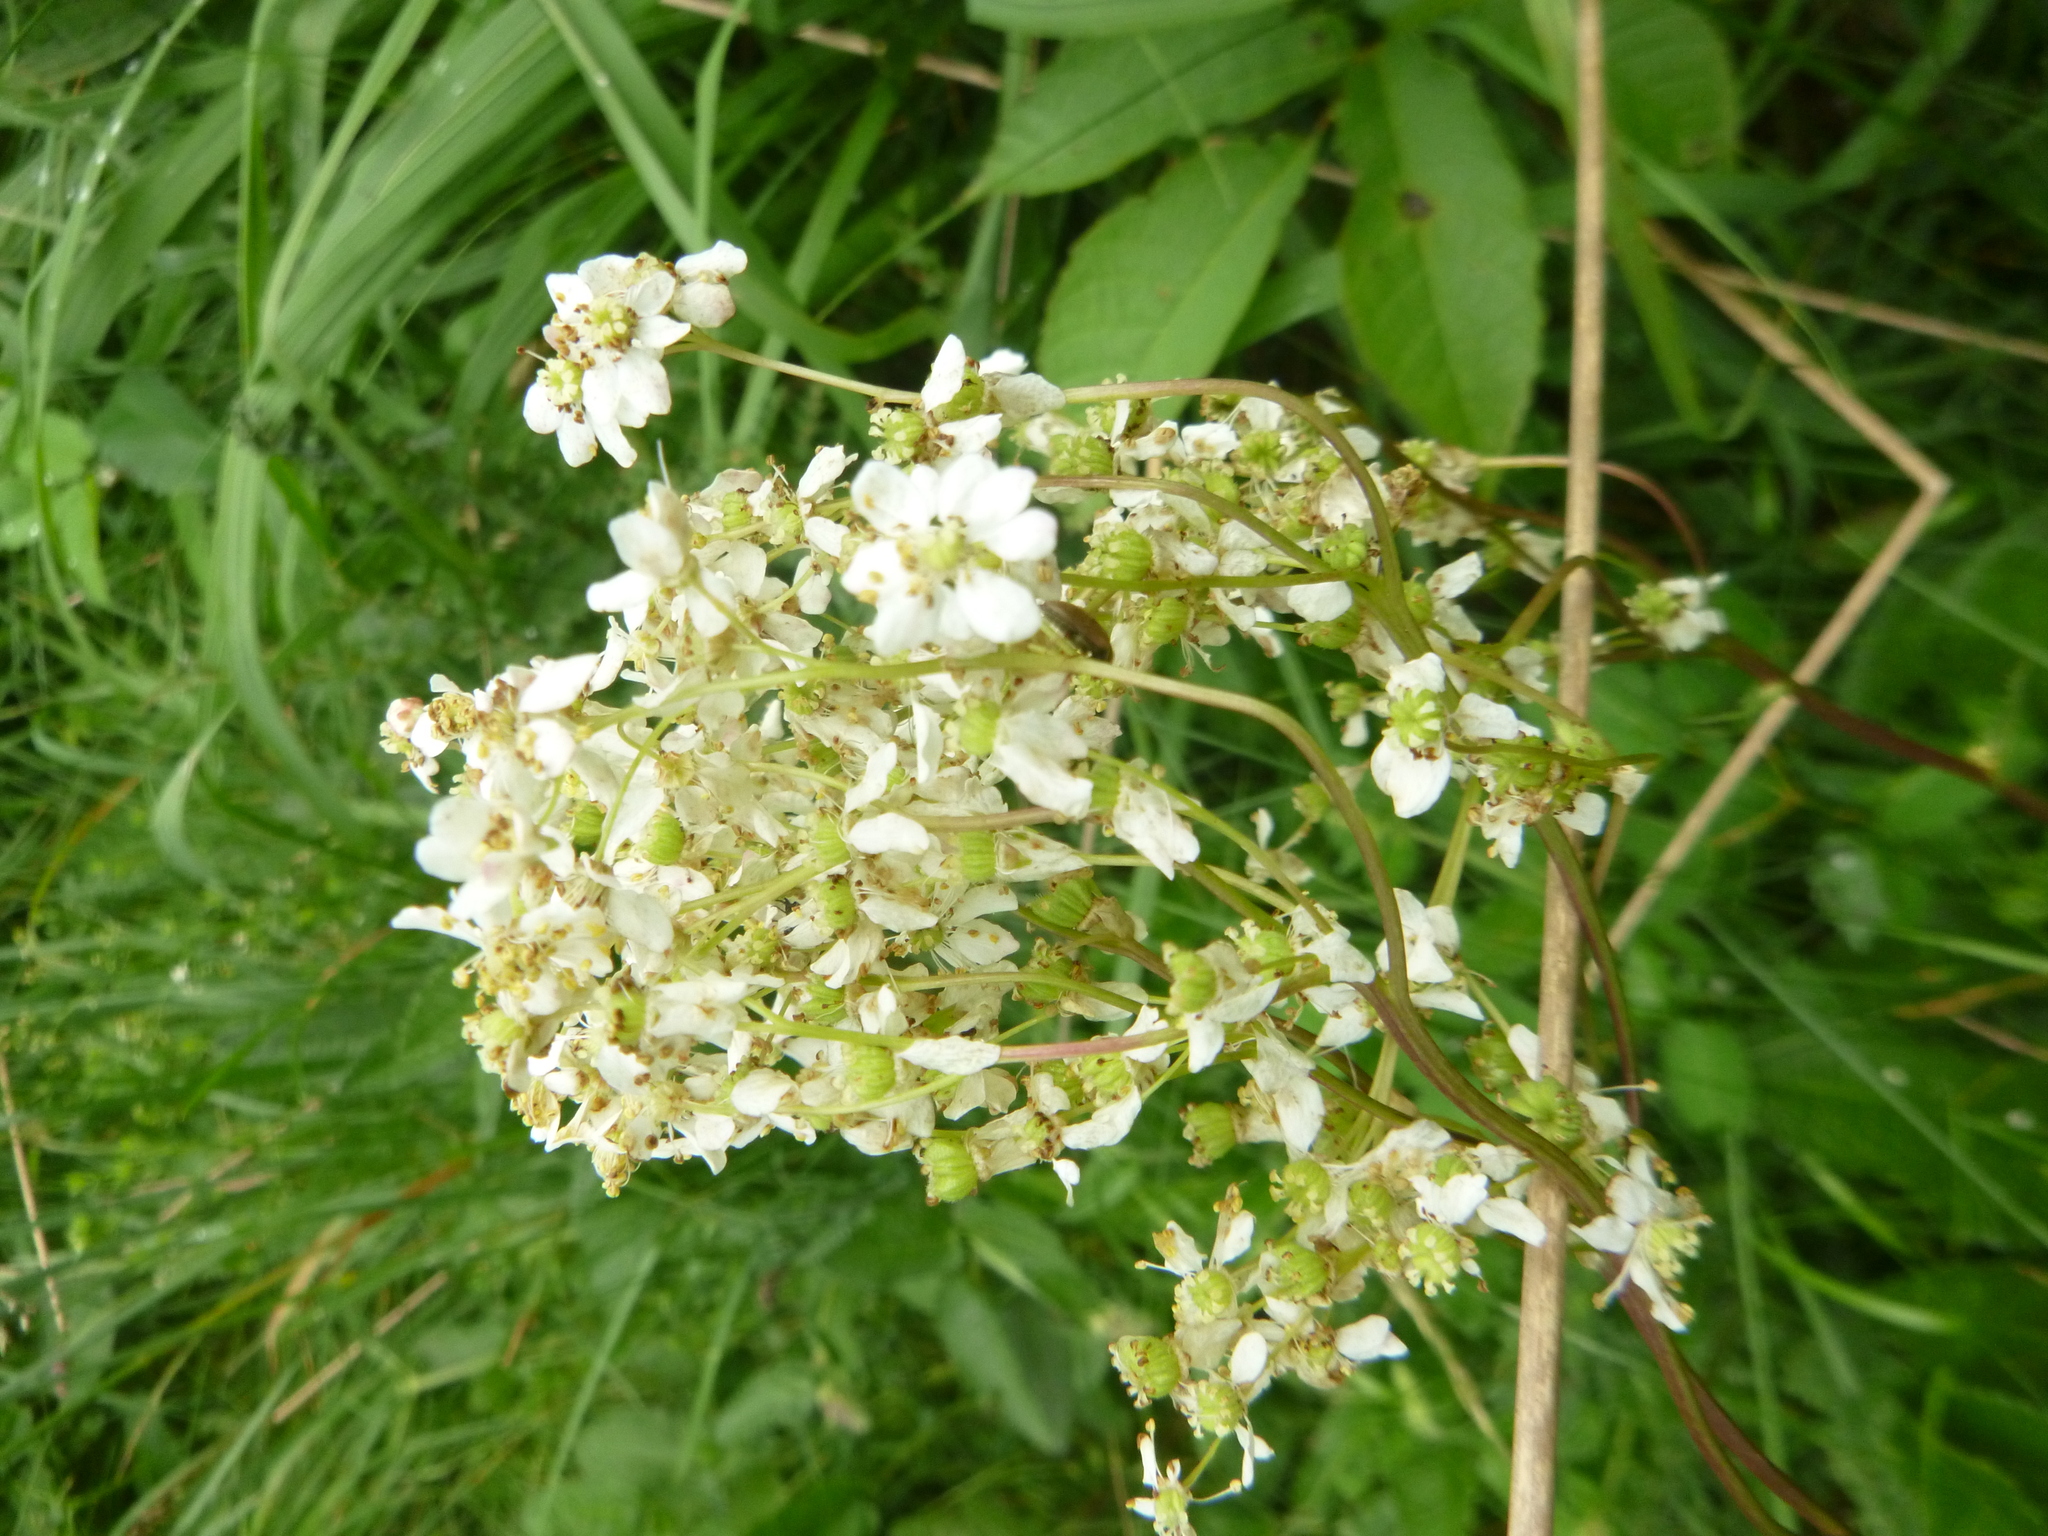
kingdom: Plantae
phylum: Tracheophyta
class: Magnoliopsida
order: Rosales
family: Rosaceae
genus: Filipendula
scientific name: Filipendula vulgaris
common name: Dropwort
